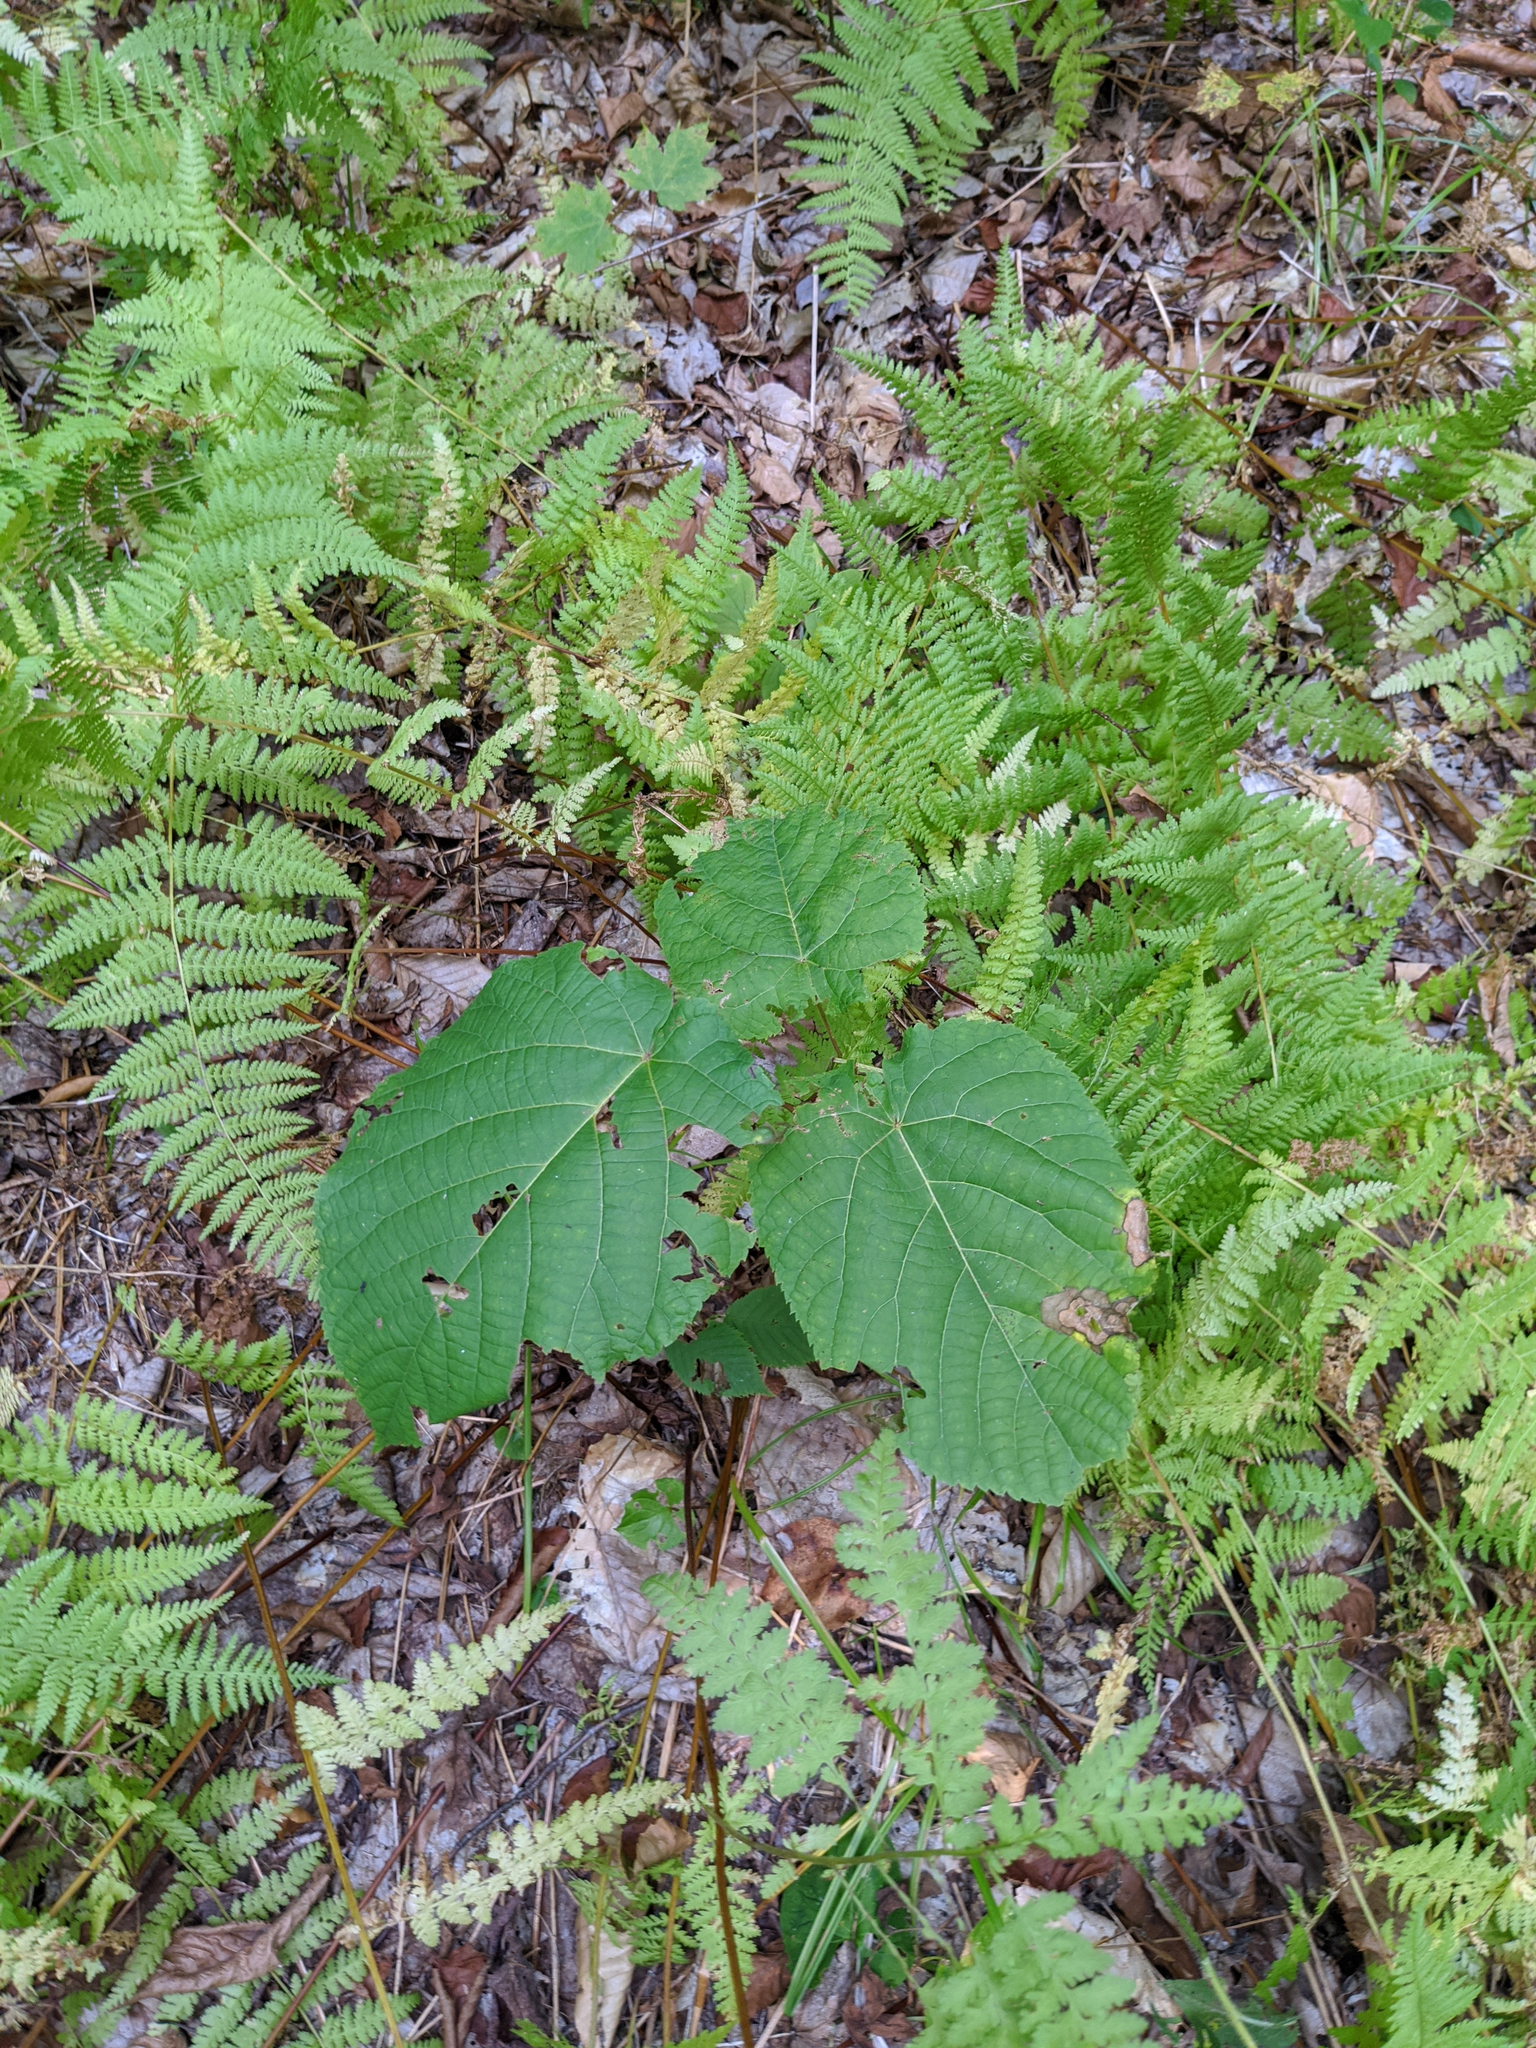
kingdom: Plantae
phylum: Tracheophyta
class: Magnoliopsida
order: Dipsacales
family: Viburnaceae
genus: Viburnum
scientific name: Viburnum lantanoides
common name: Hobblebush
